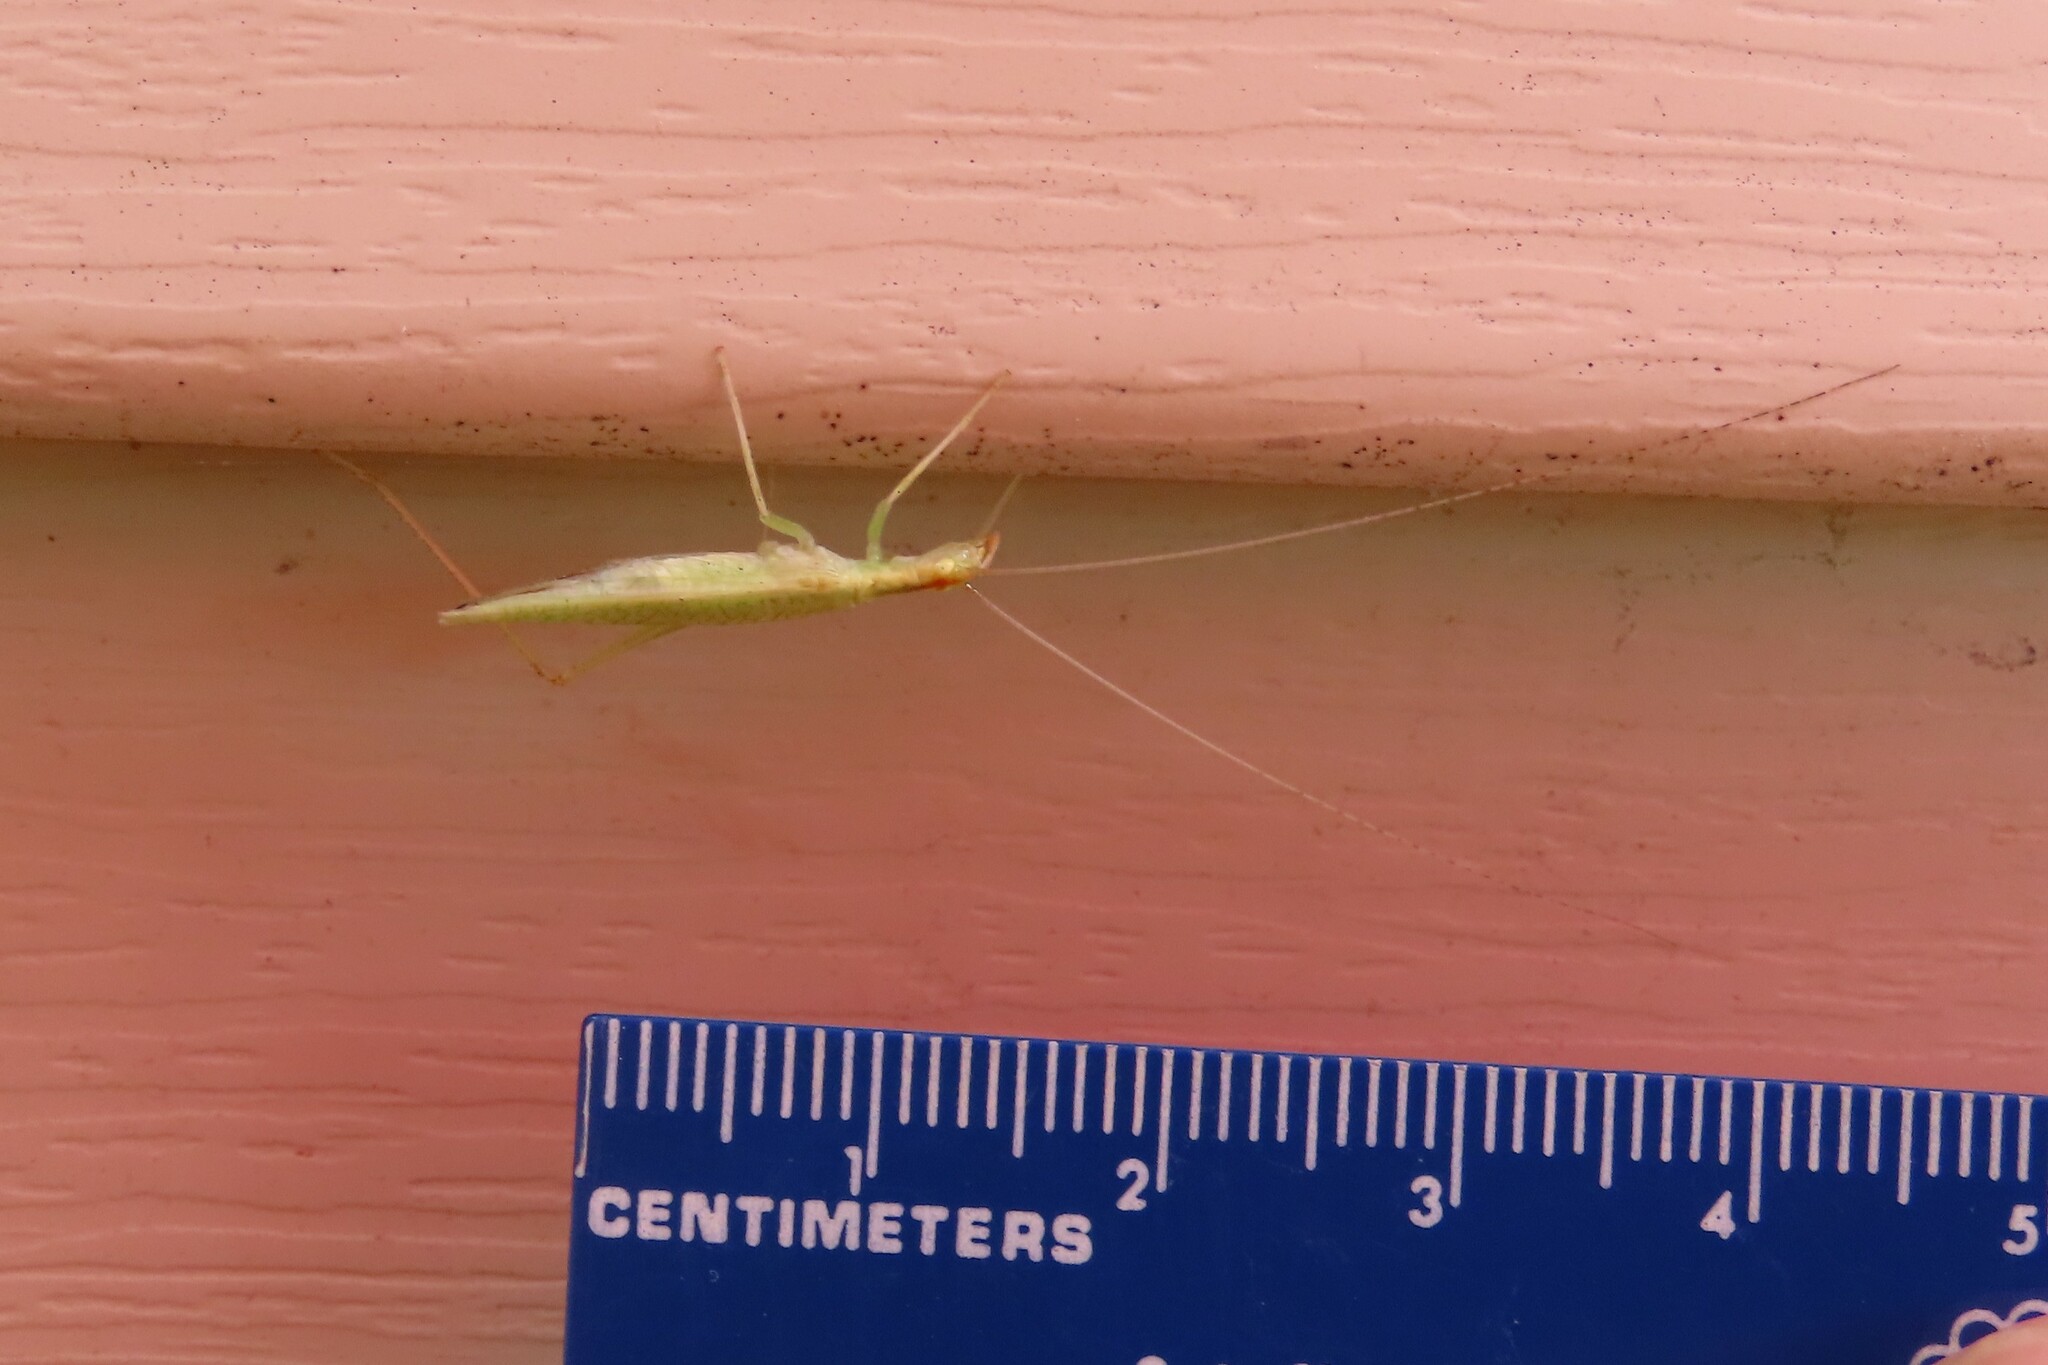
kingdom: Animalia
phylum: Arthropoda
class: Insecta
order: Orthoptera
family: Gryllidae
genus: Oecanthus
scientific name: Oecanthus niveus
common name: Narrow-winged tree cricket
